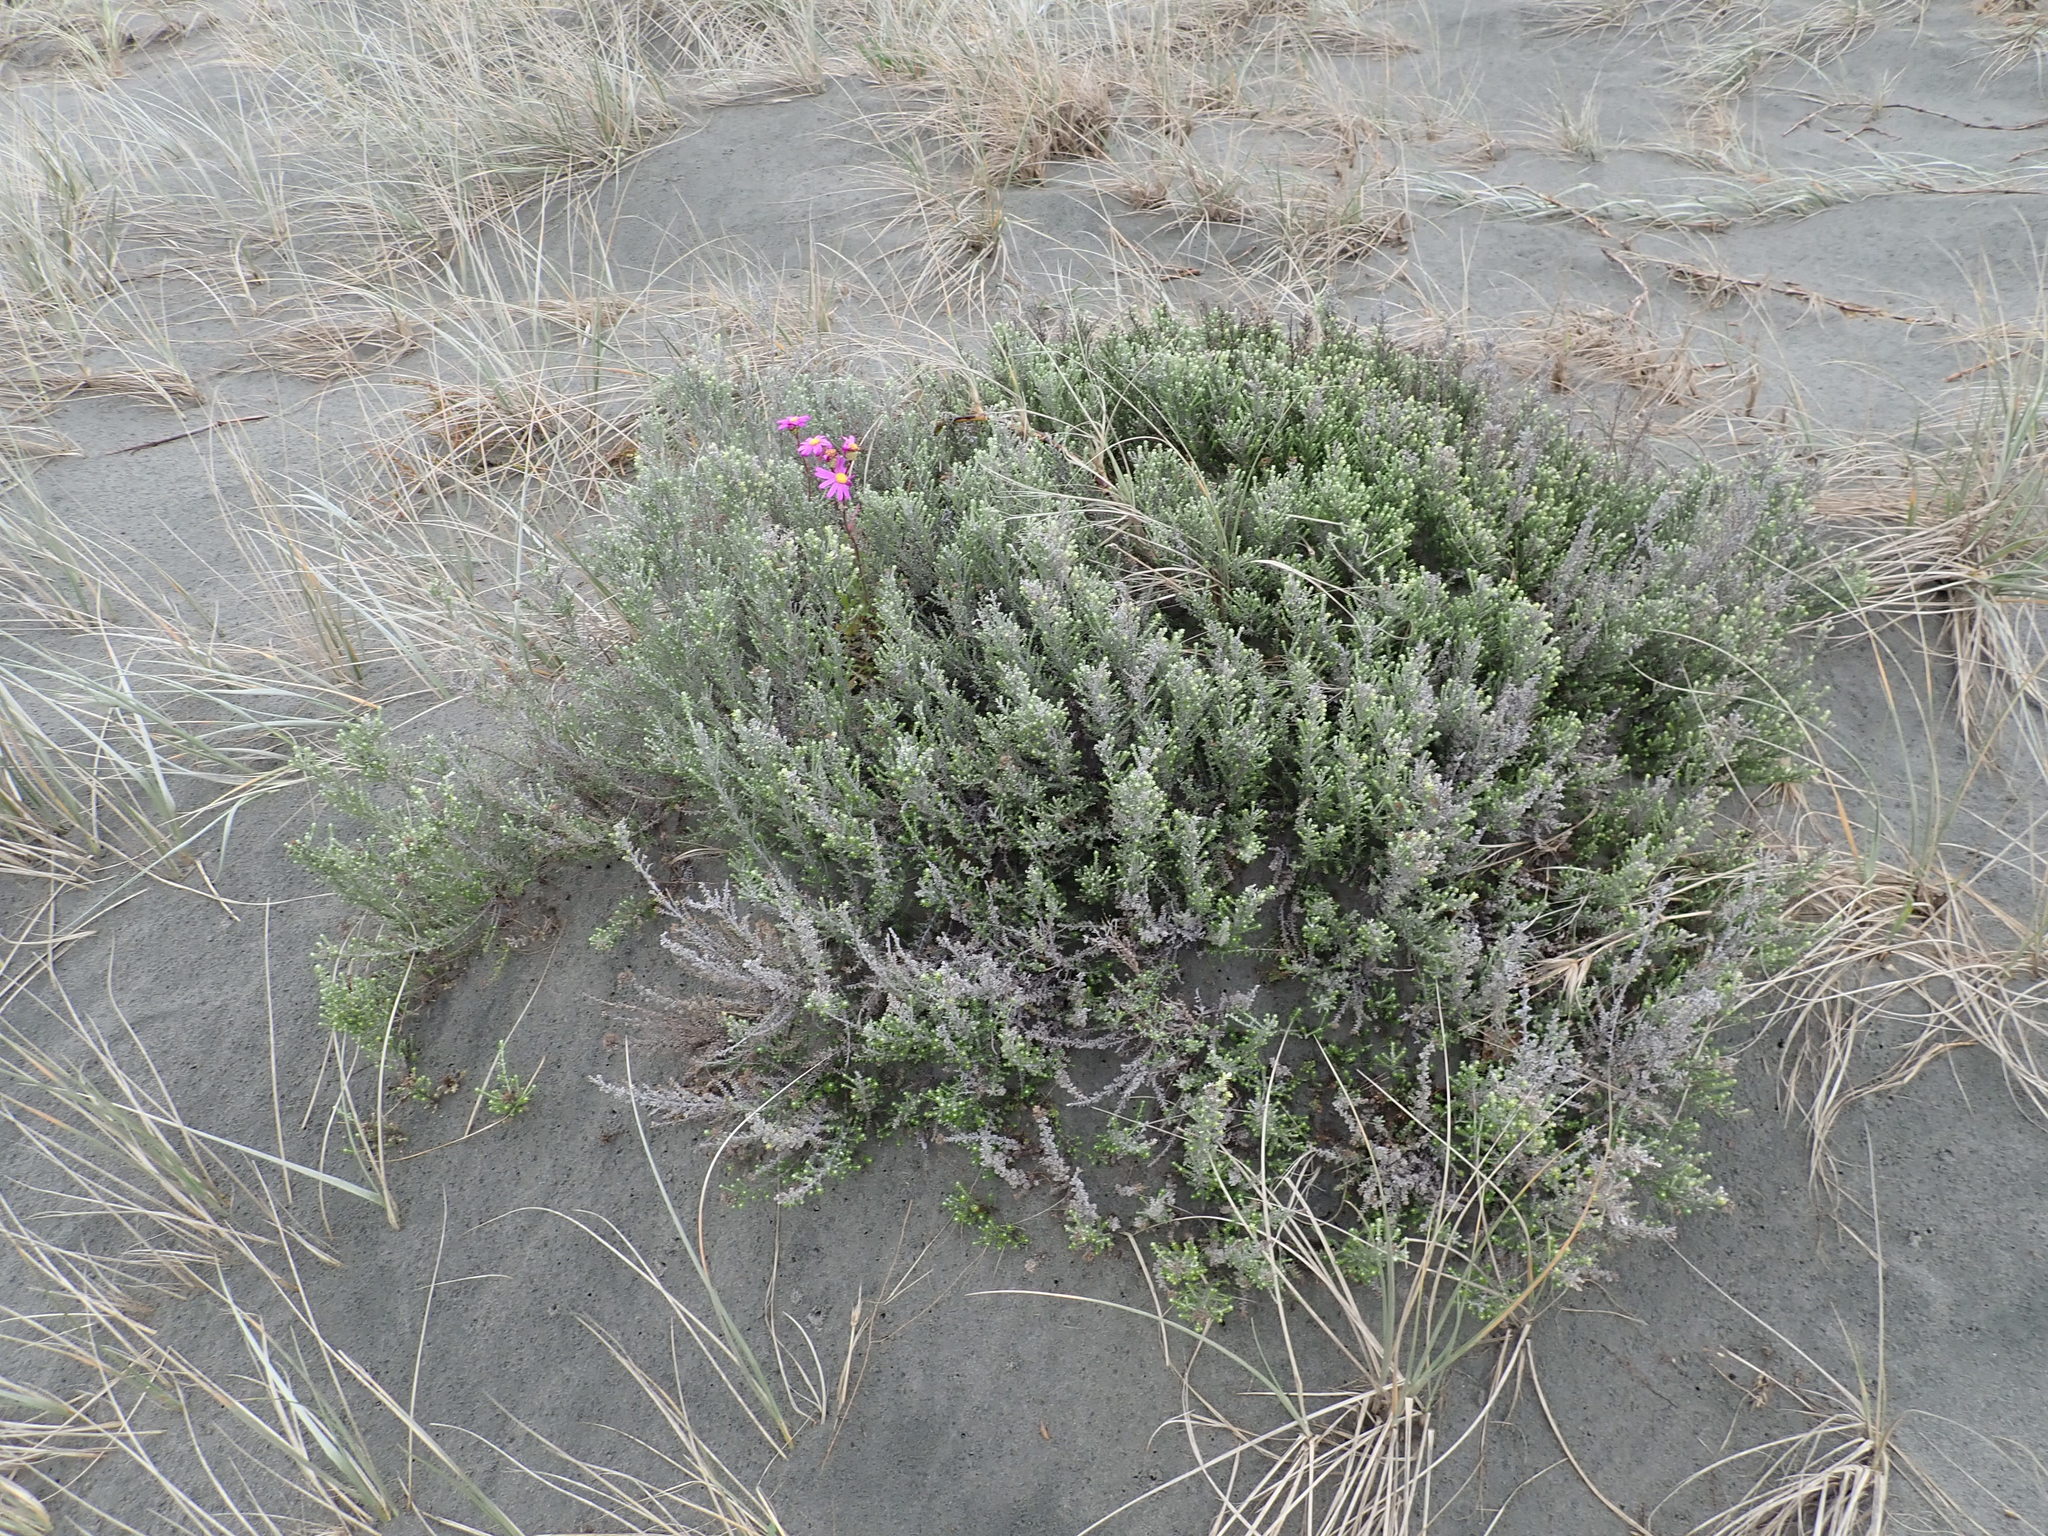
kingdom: Plantae
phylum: Tracheophyta
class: Magnoliopsida
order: Asterales
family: Asteraceae
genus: Senecio
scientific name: Senecio elegans
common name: Purple groundsel
